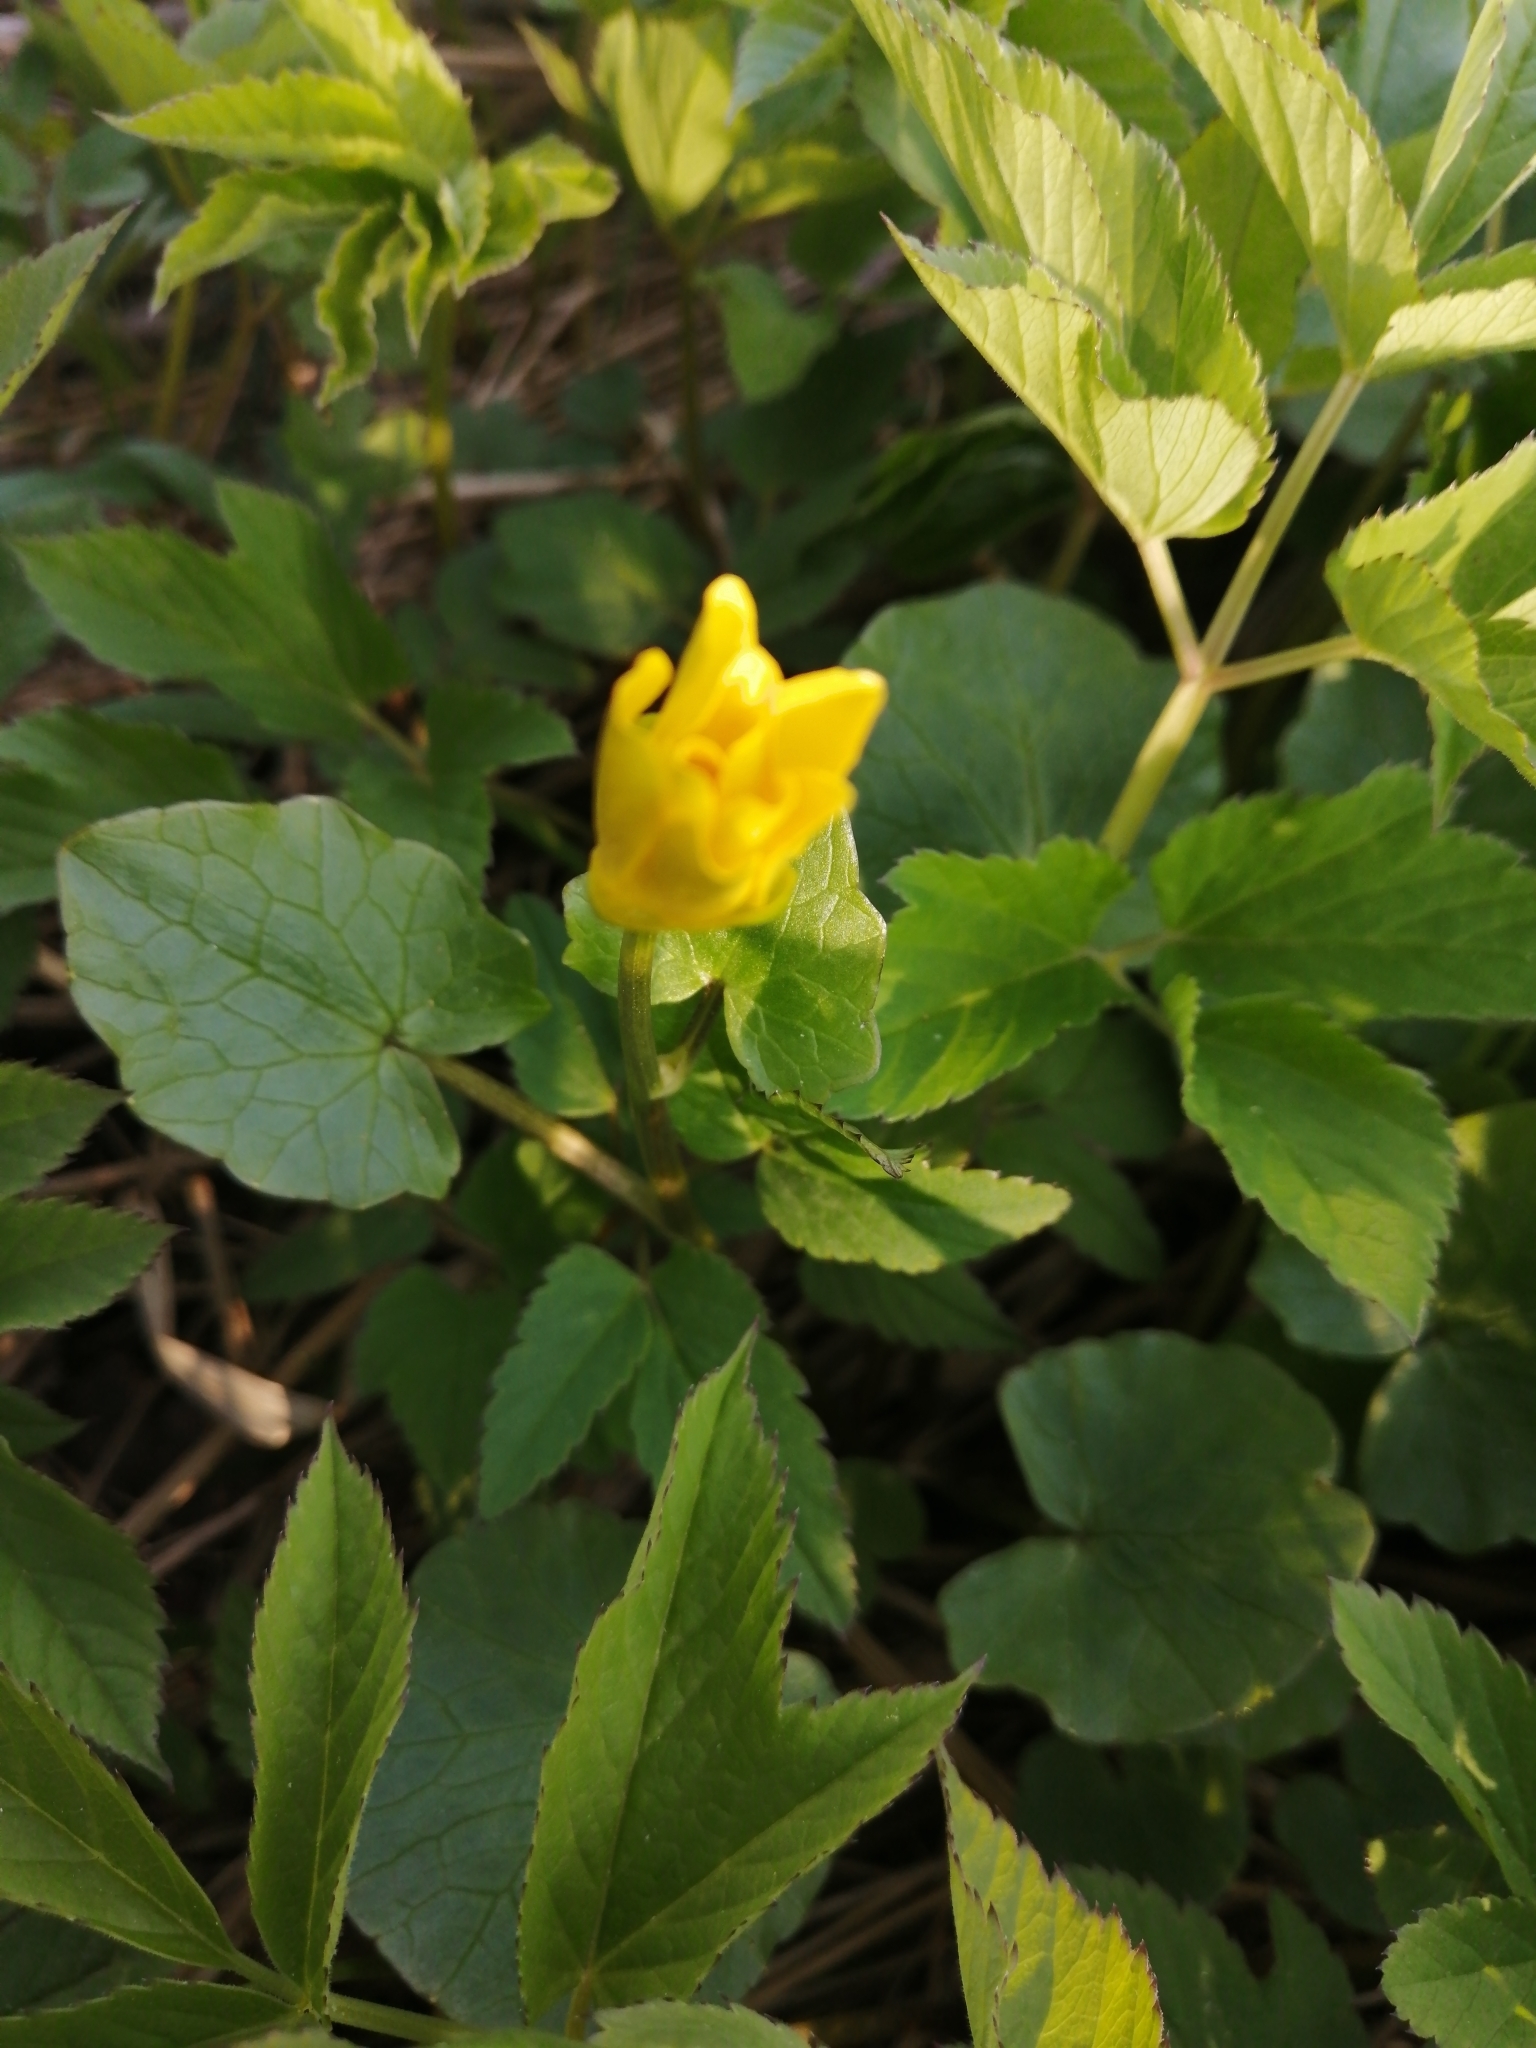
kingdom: Plantae
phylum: Tracheophyta
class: Magnoliopsida
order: Ranunculales
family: Ranunculaceae
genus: Ficaria
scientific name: Ficaria verna
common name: Lesser celandine
